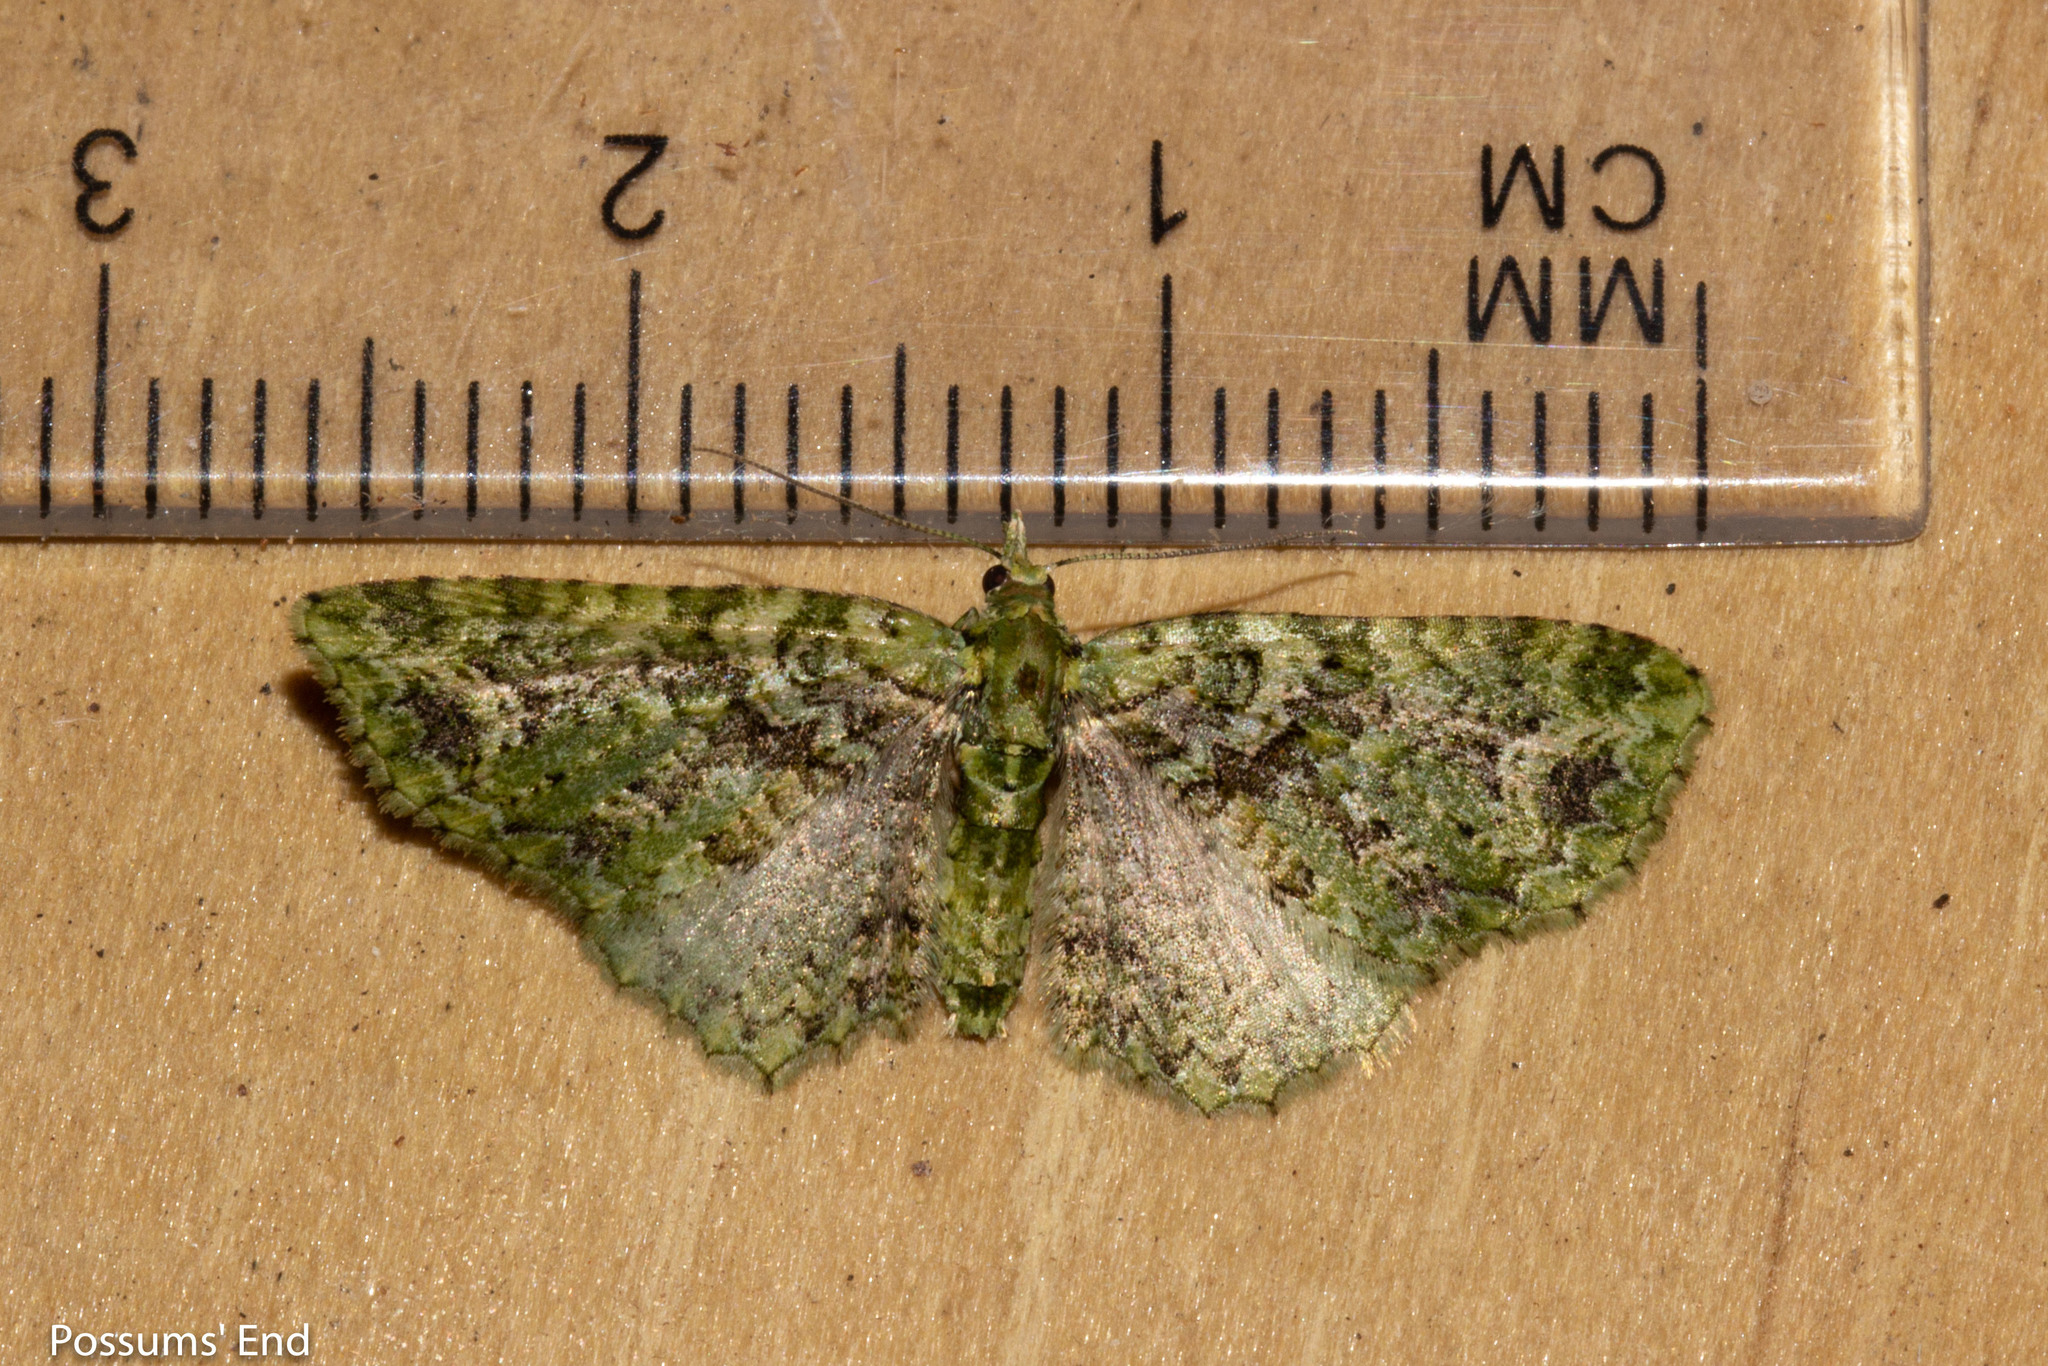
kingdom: Animalia
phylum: Arthropoda
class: Insecta
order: Lepidoptera
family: Geometridae
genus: Pasiphila
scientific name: Pasiphila muscosata
